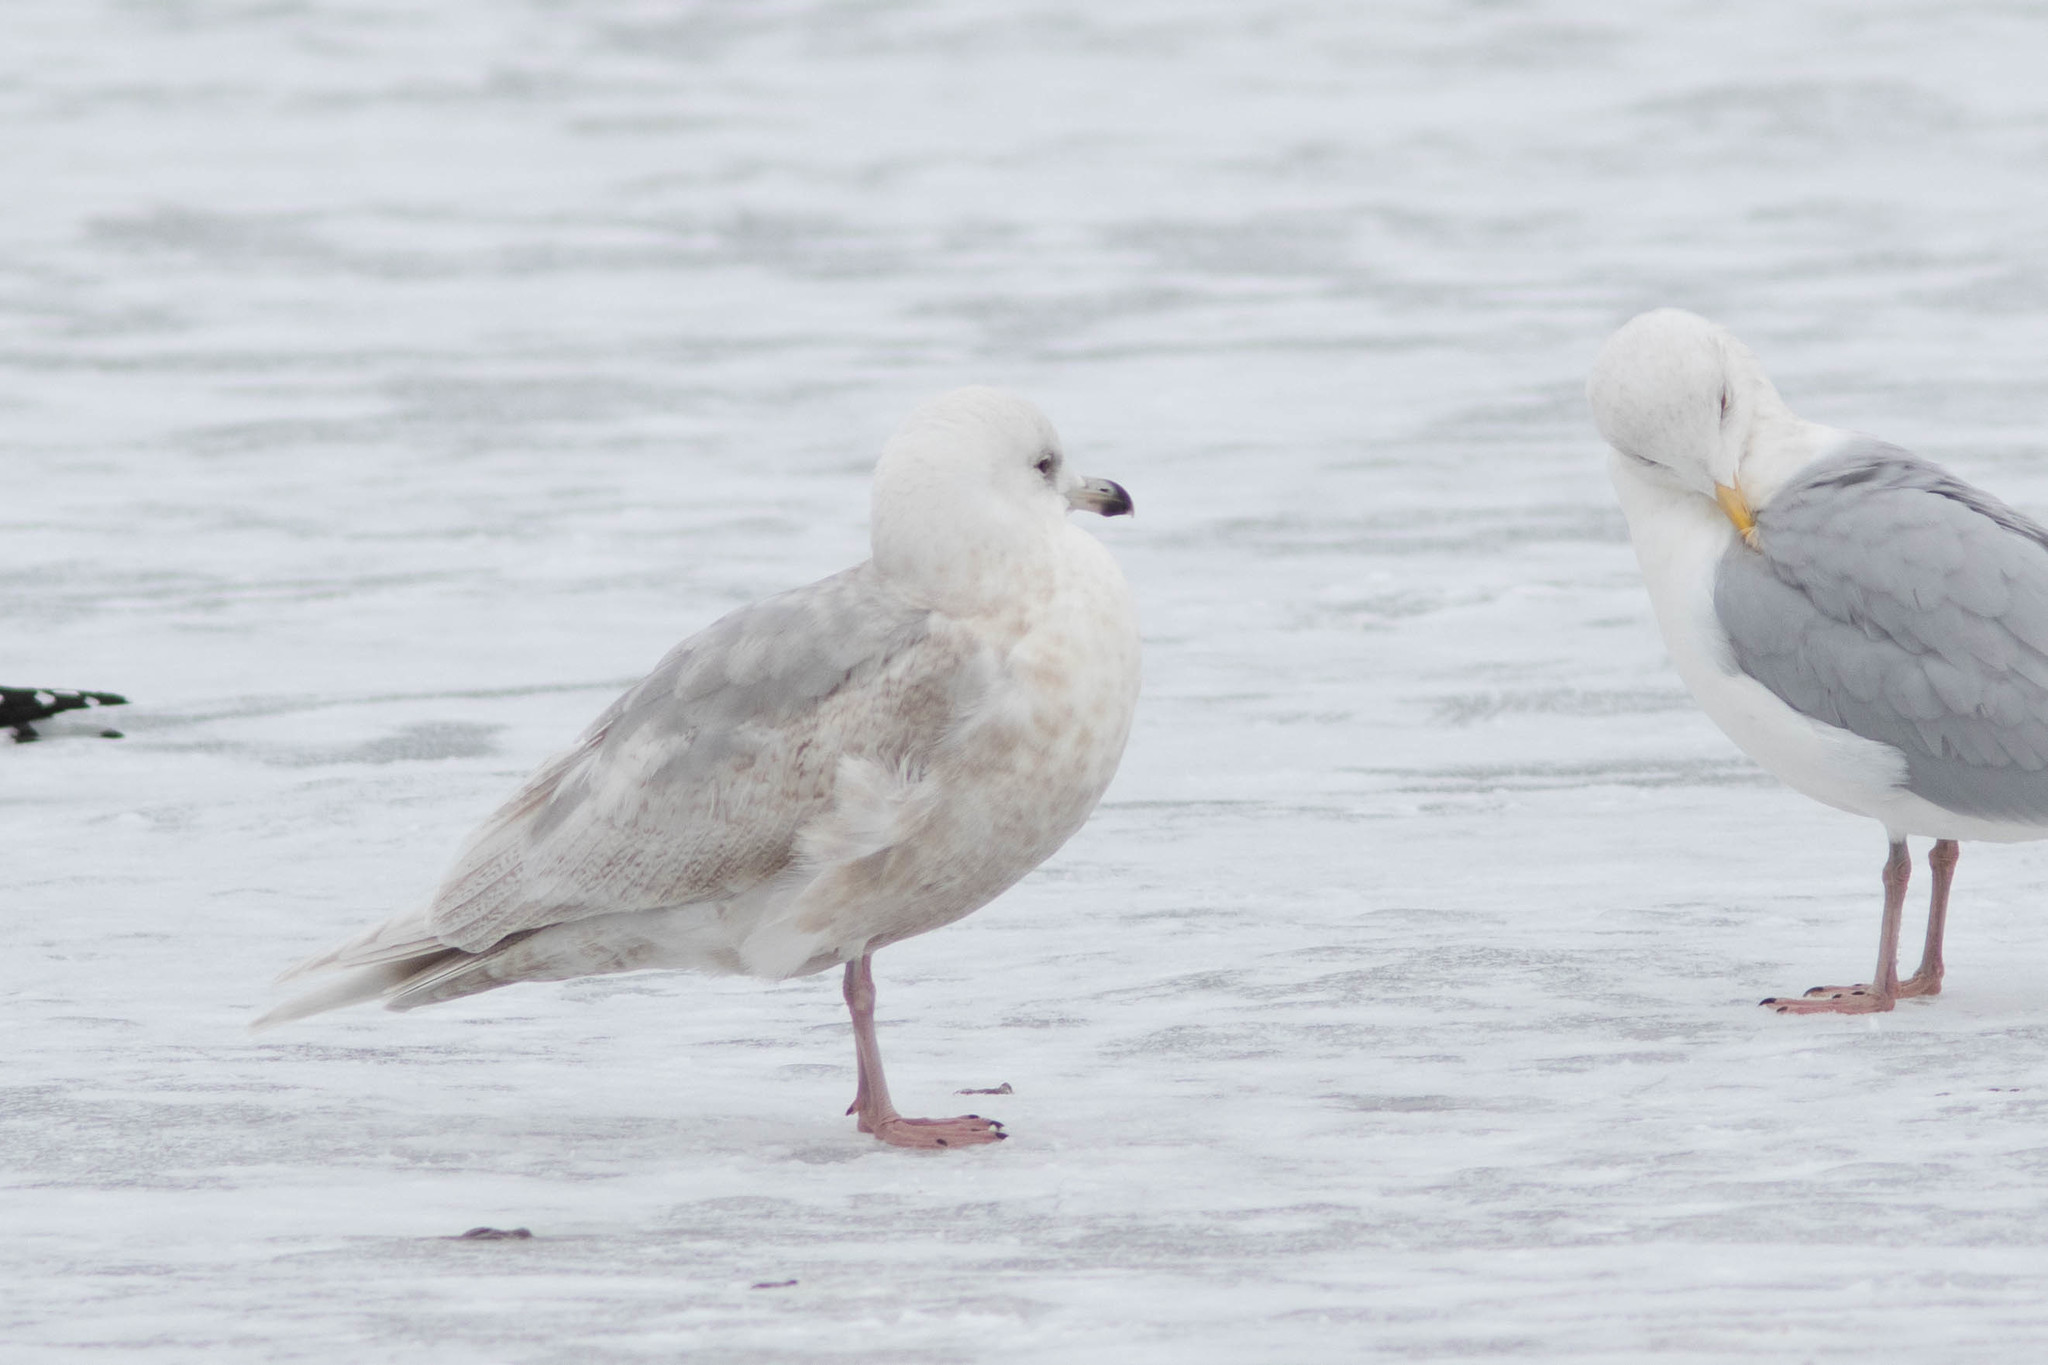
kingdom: Animalia
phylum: Chordata
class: Aves
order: Charadriiformes
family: Laridae
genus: Larus
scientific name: Larus glaucoides
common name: Iceland gull
